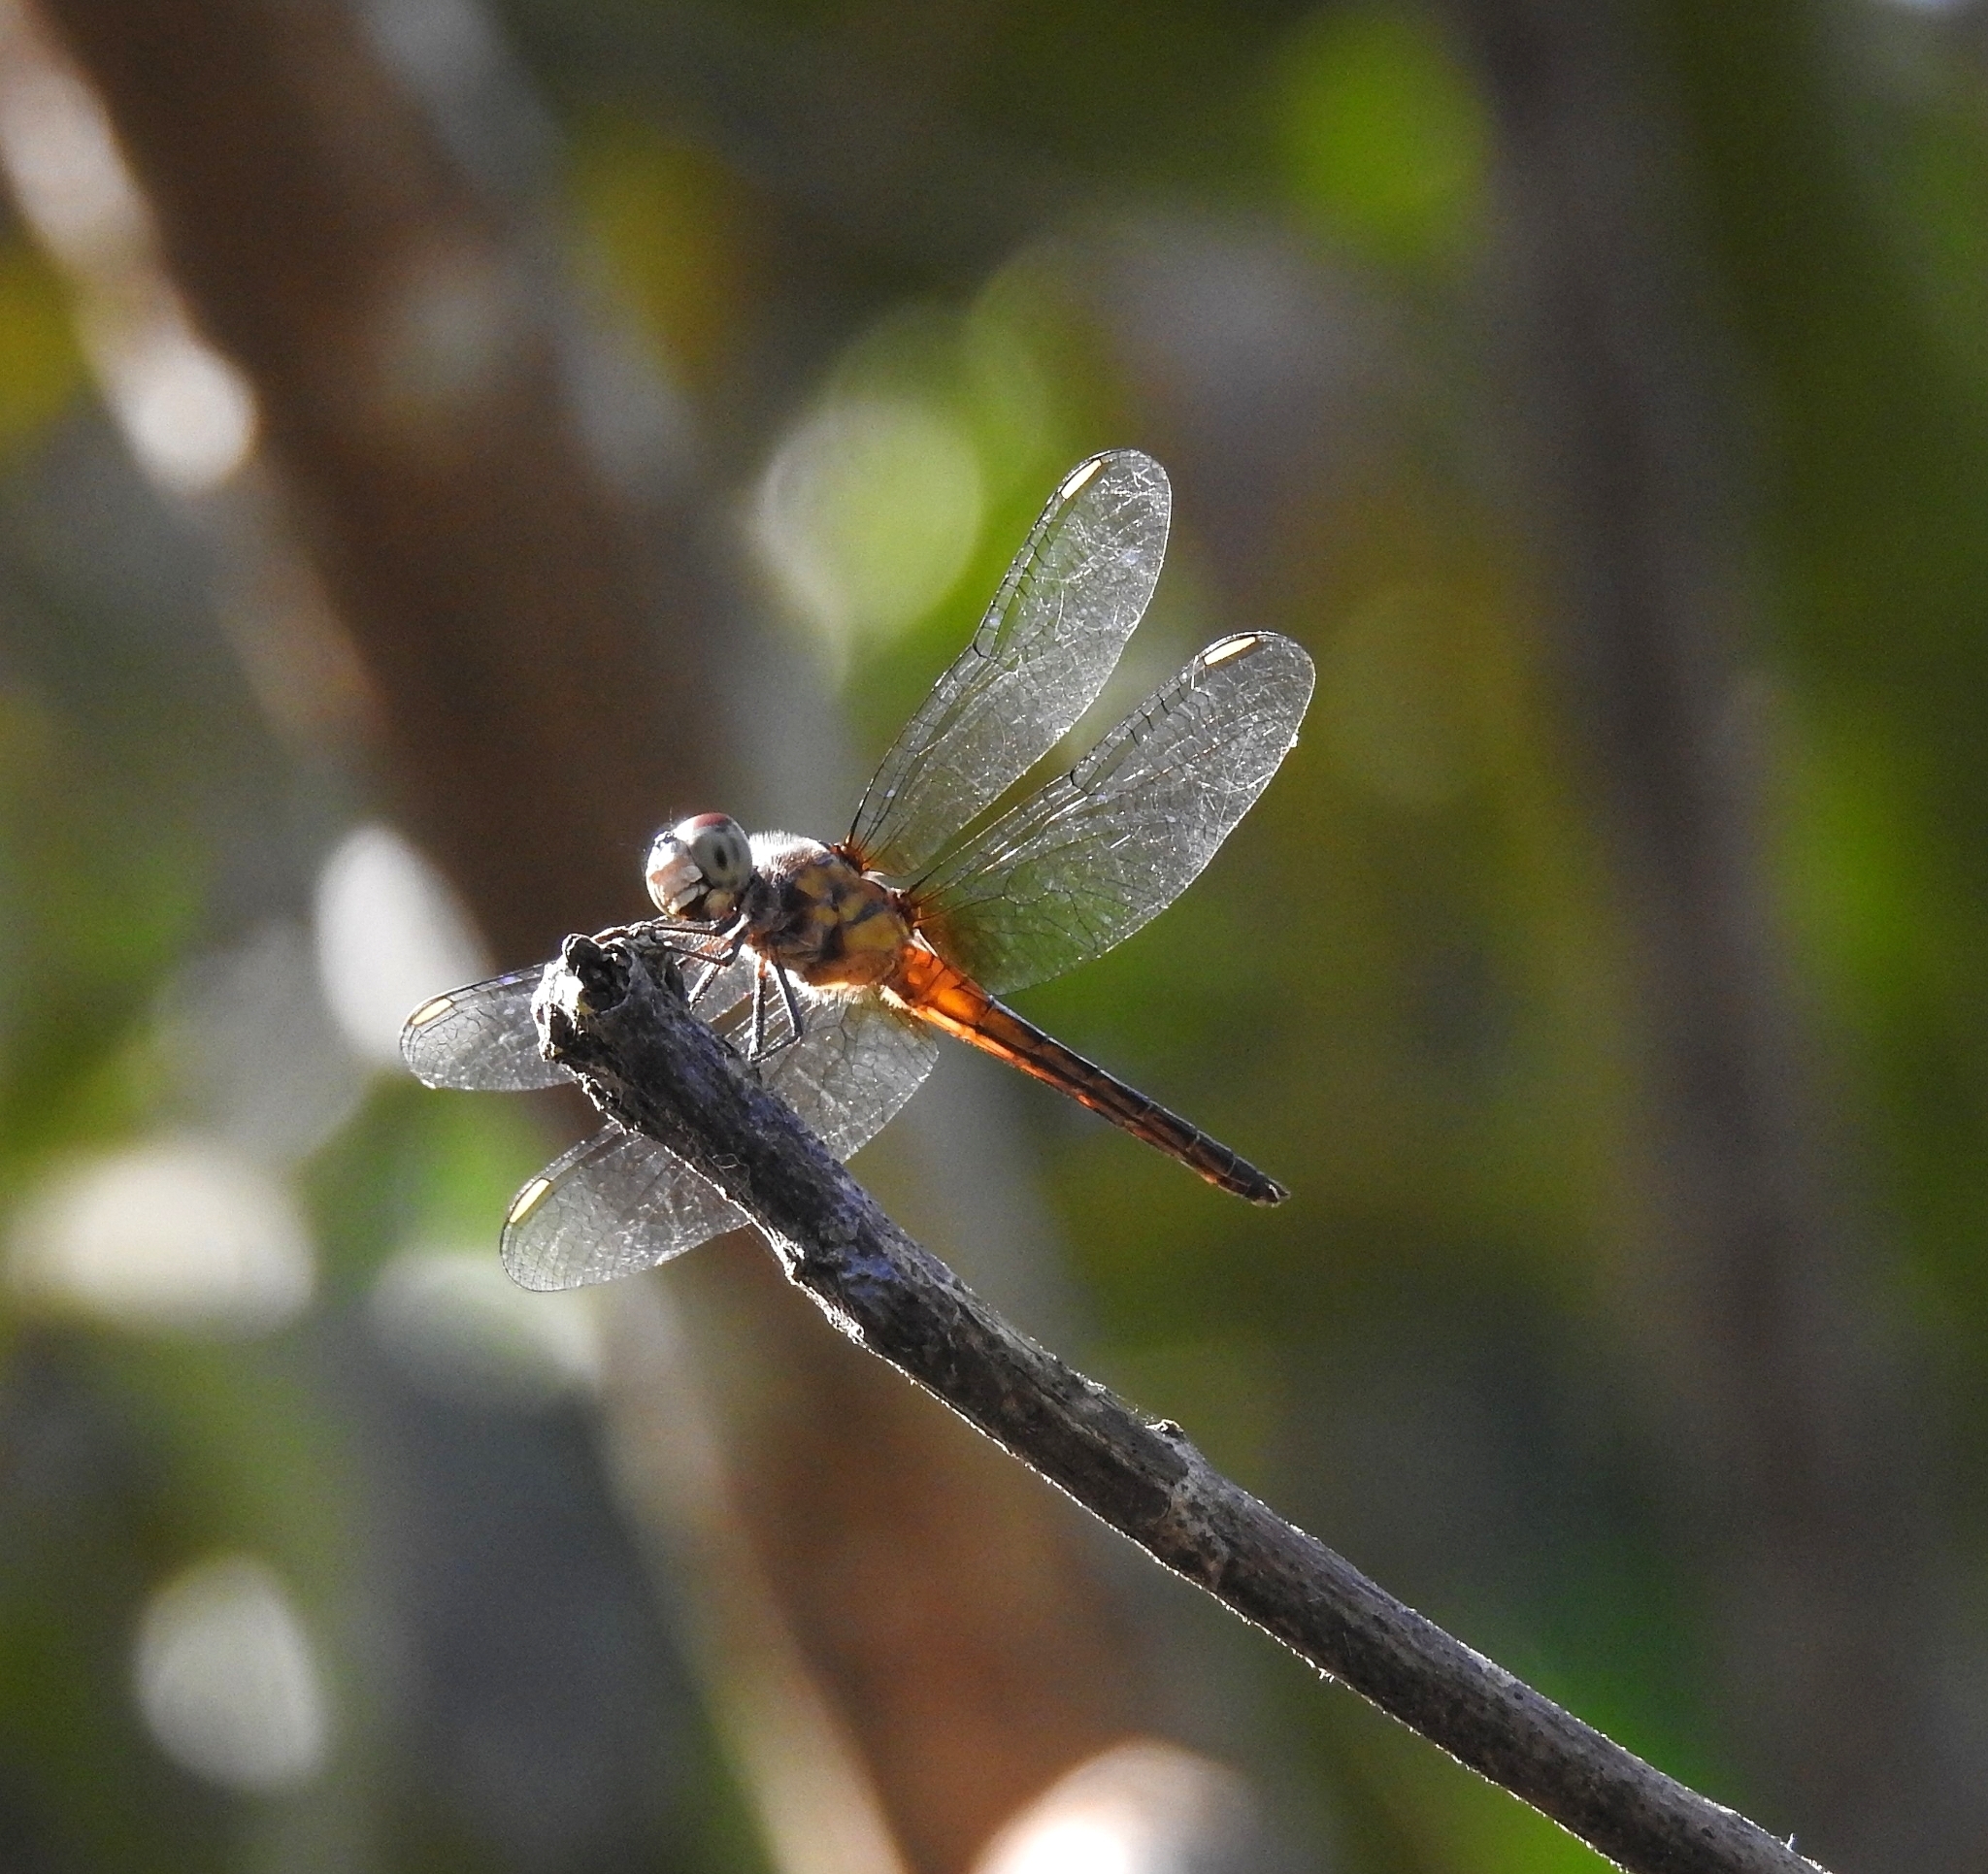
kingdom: Animalia
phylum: Arthropoda
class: Insecta
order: Odonata
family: Libellulidae
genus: Brachydiplax
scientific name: Brachydiplax chalybea
